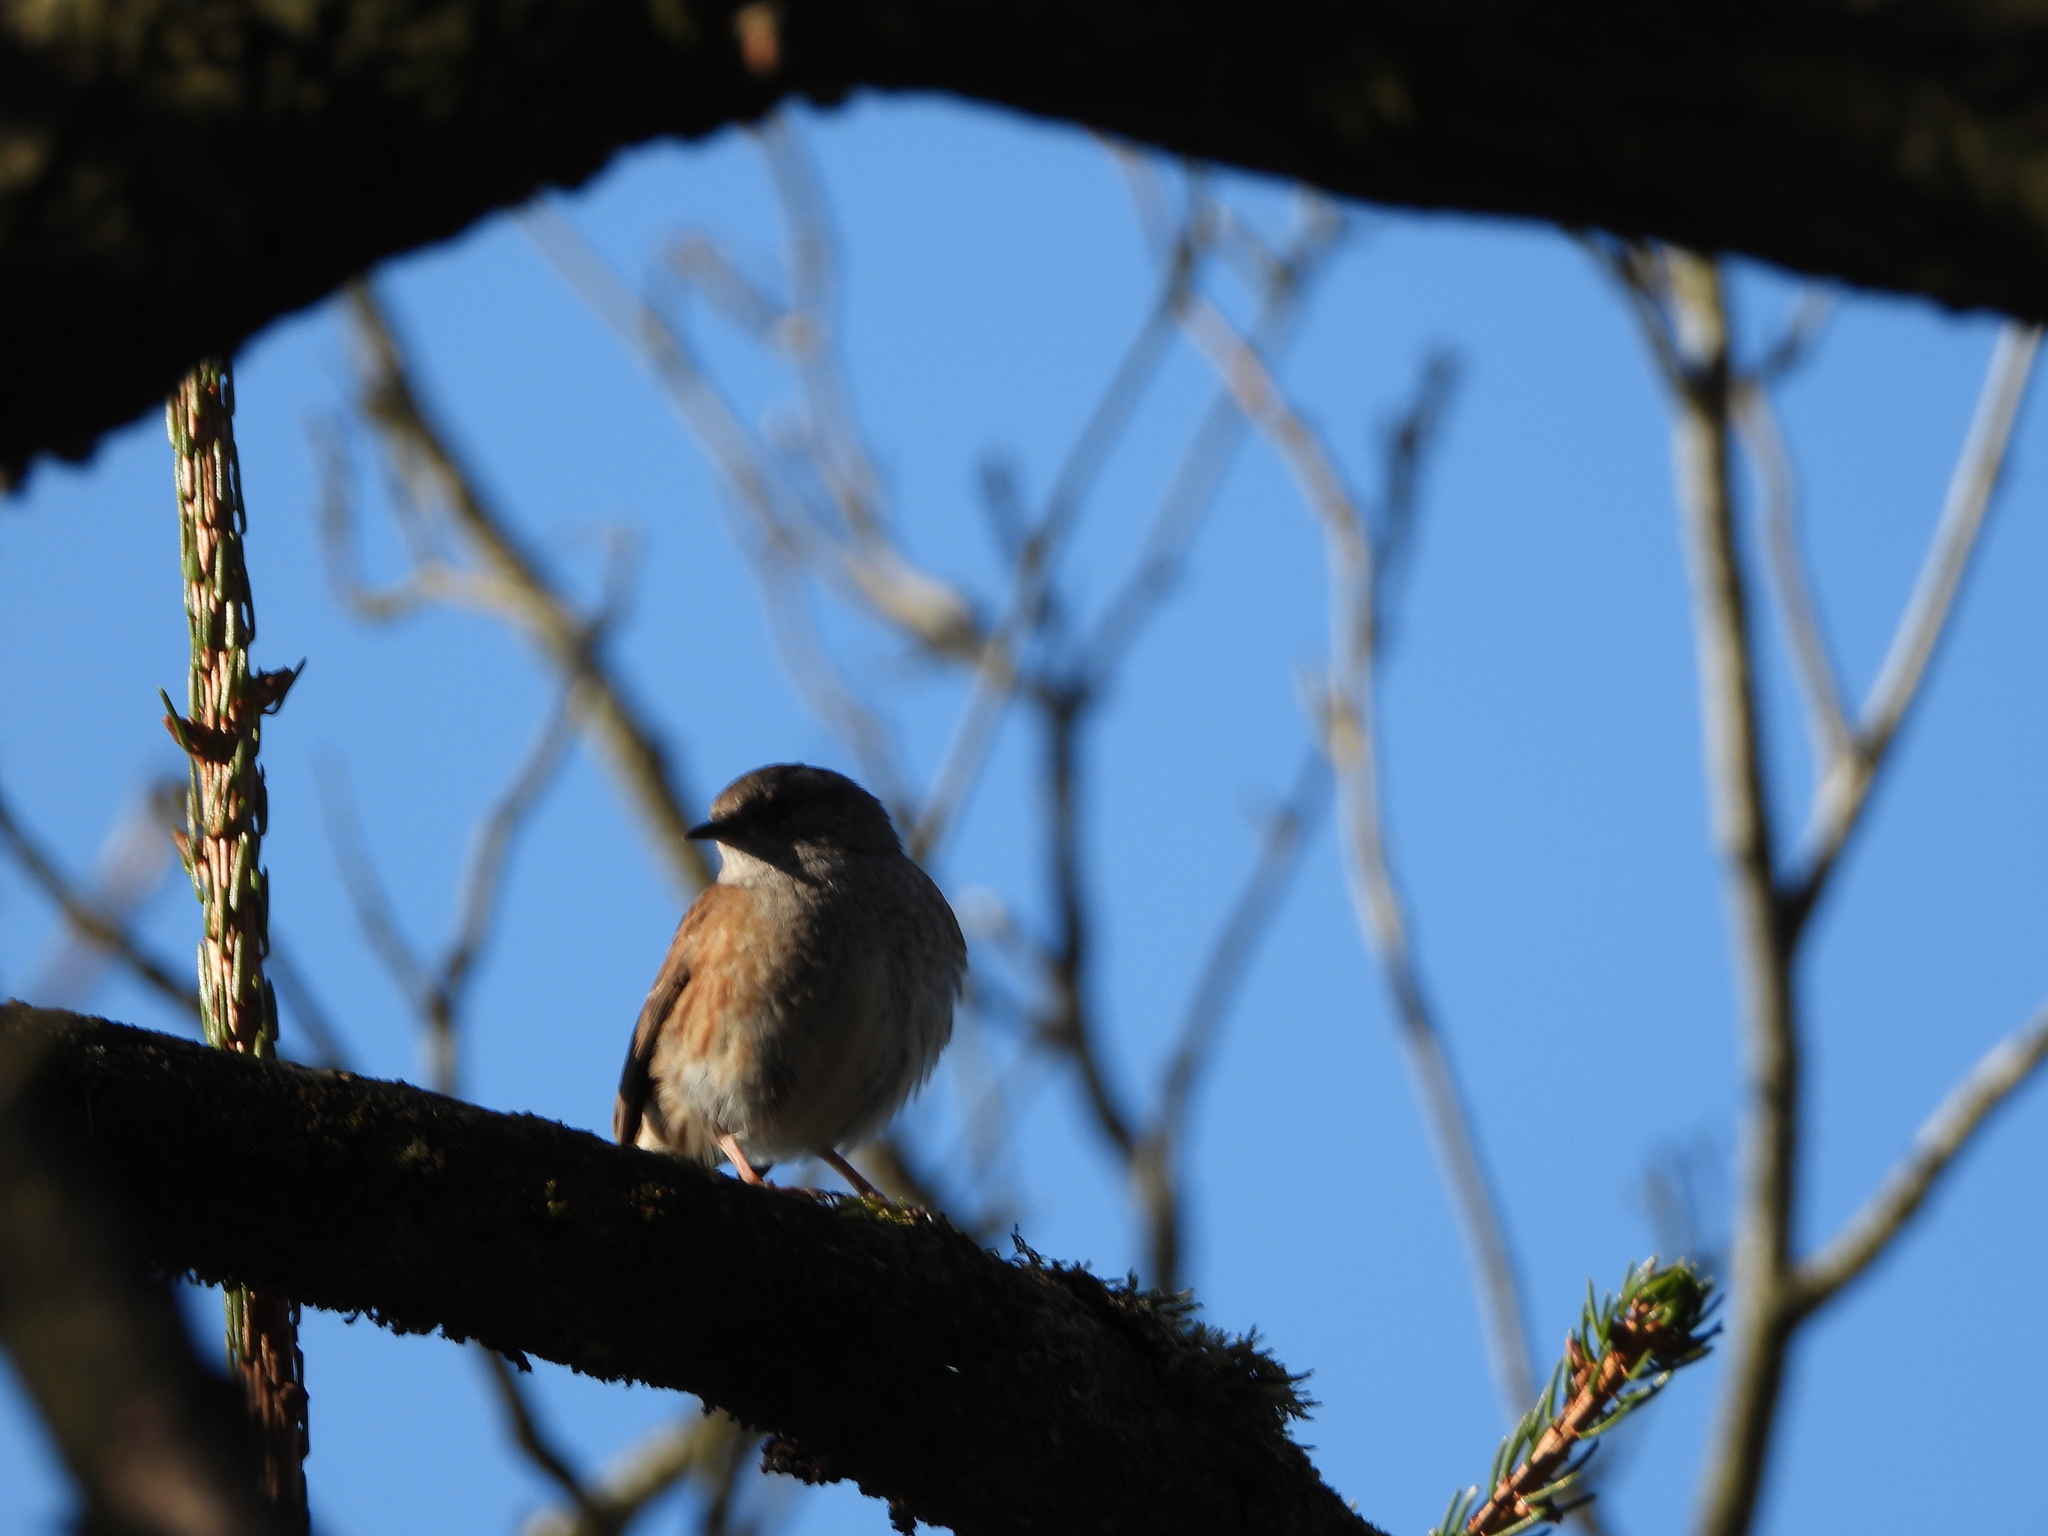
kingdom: Animalia
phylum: Chordata
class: Aves
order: Passeriformes
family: Prunellidae
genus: Prunella
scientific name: Prunella modularis
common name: Dunnock
